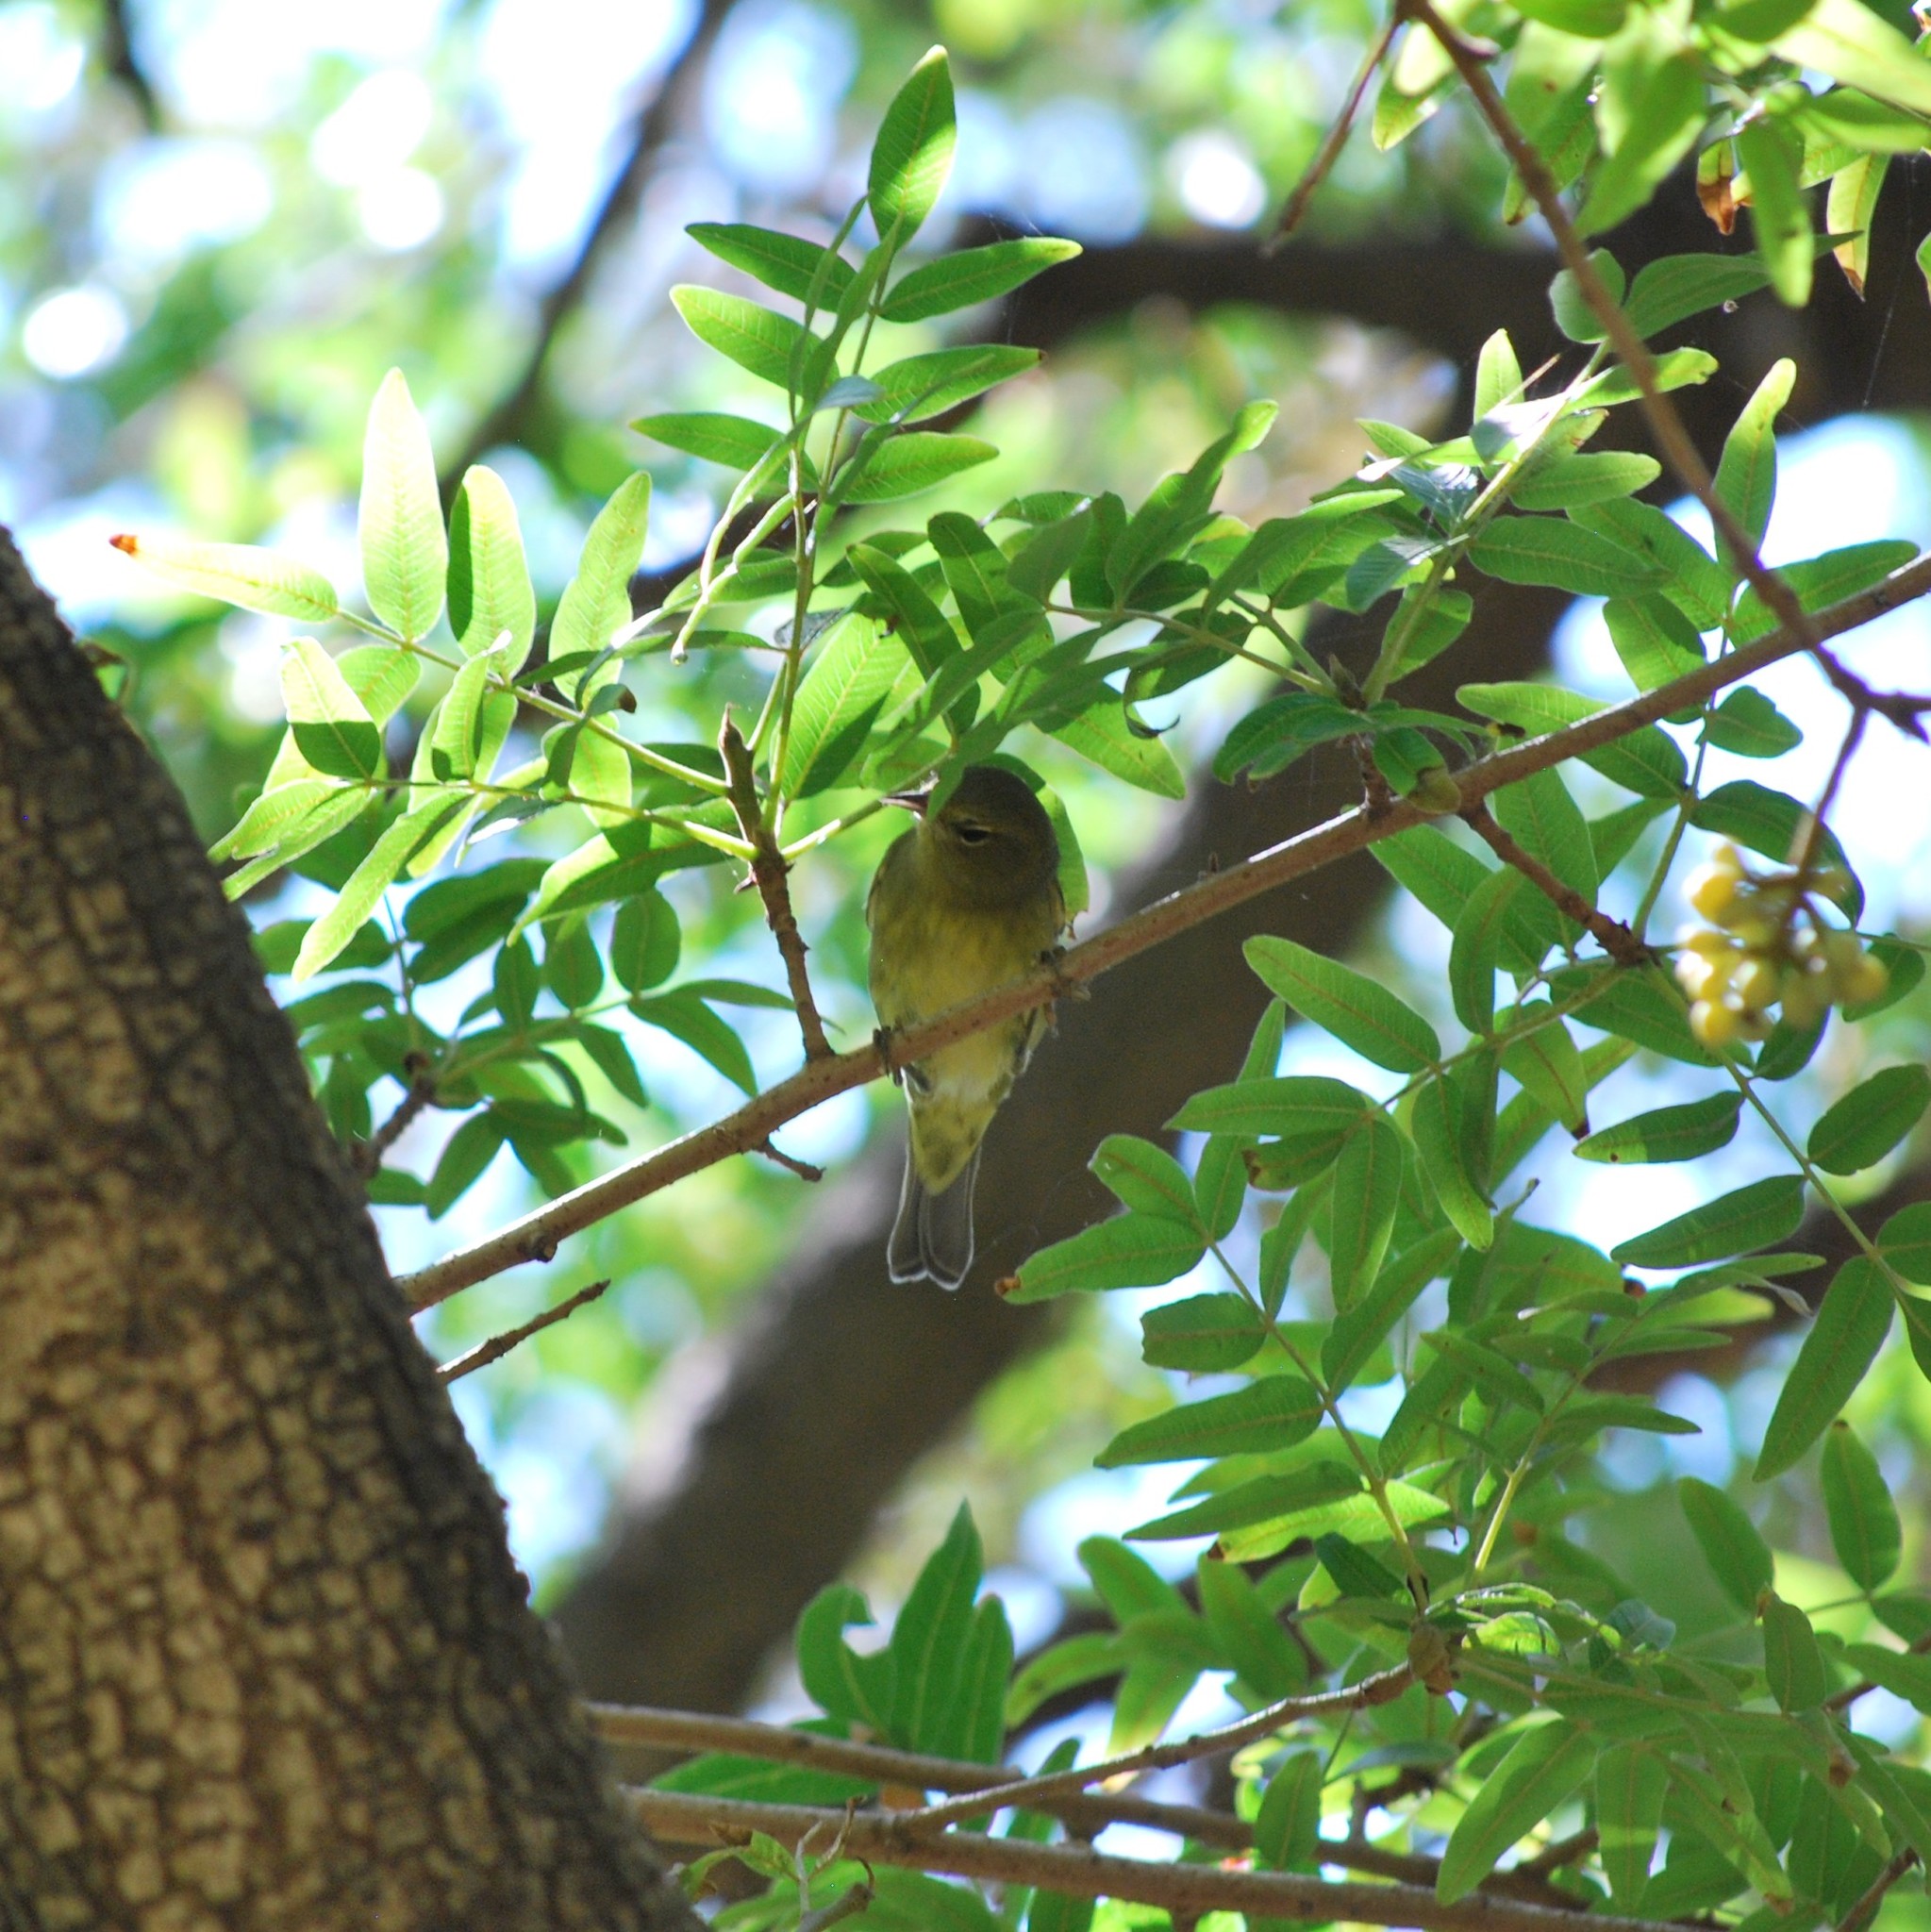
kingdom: Animalia
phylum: Chordata
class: Aves
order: Passeriformes
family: Parulidae
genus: Leiothlypis
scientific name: Leiothlypis celata
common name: Orange-crowned warbler
